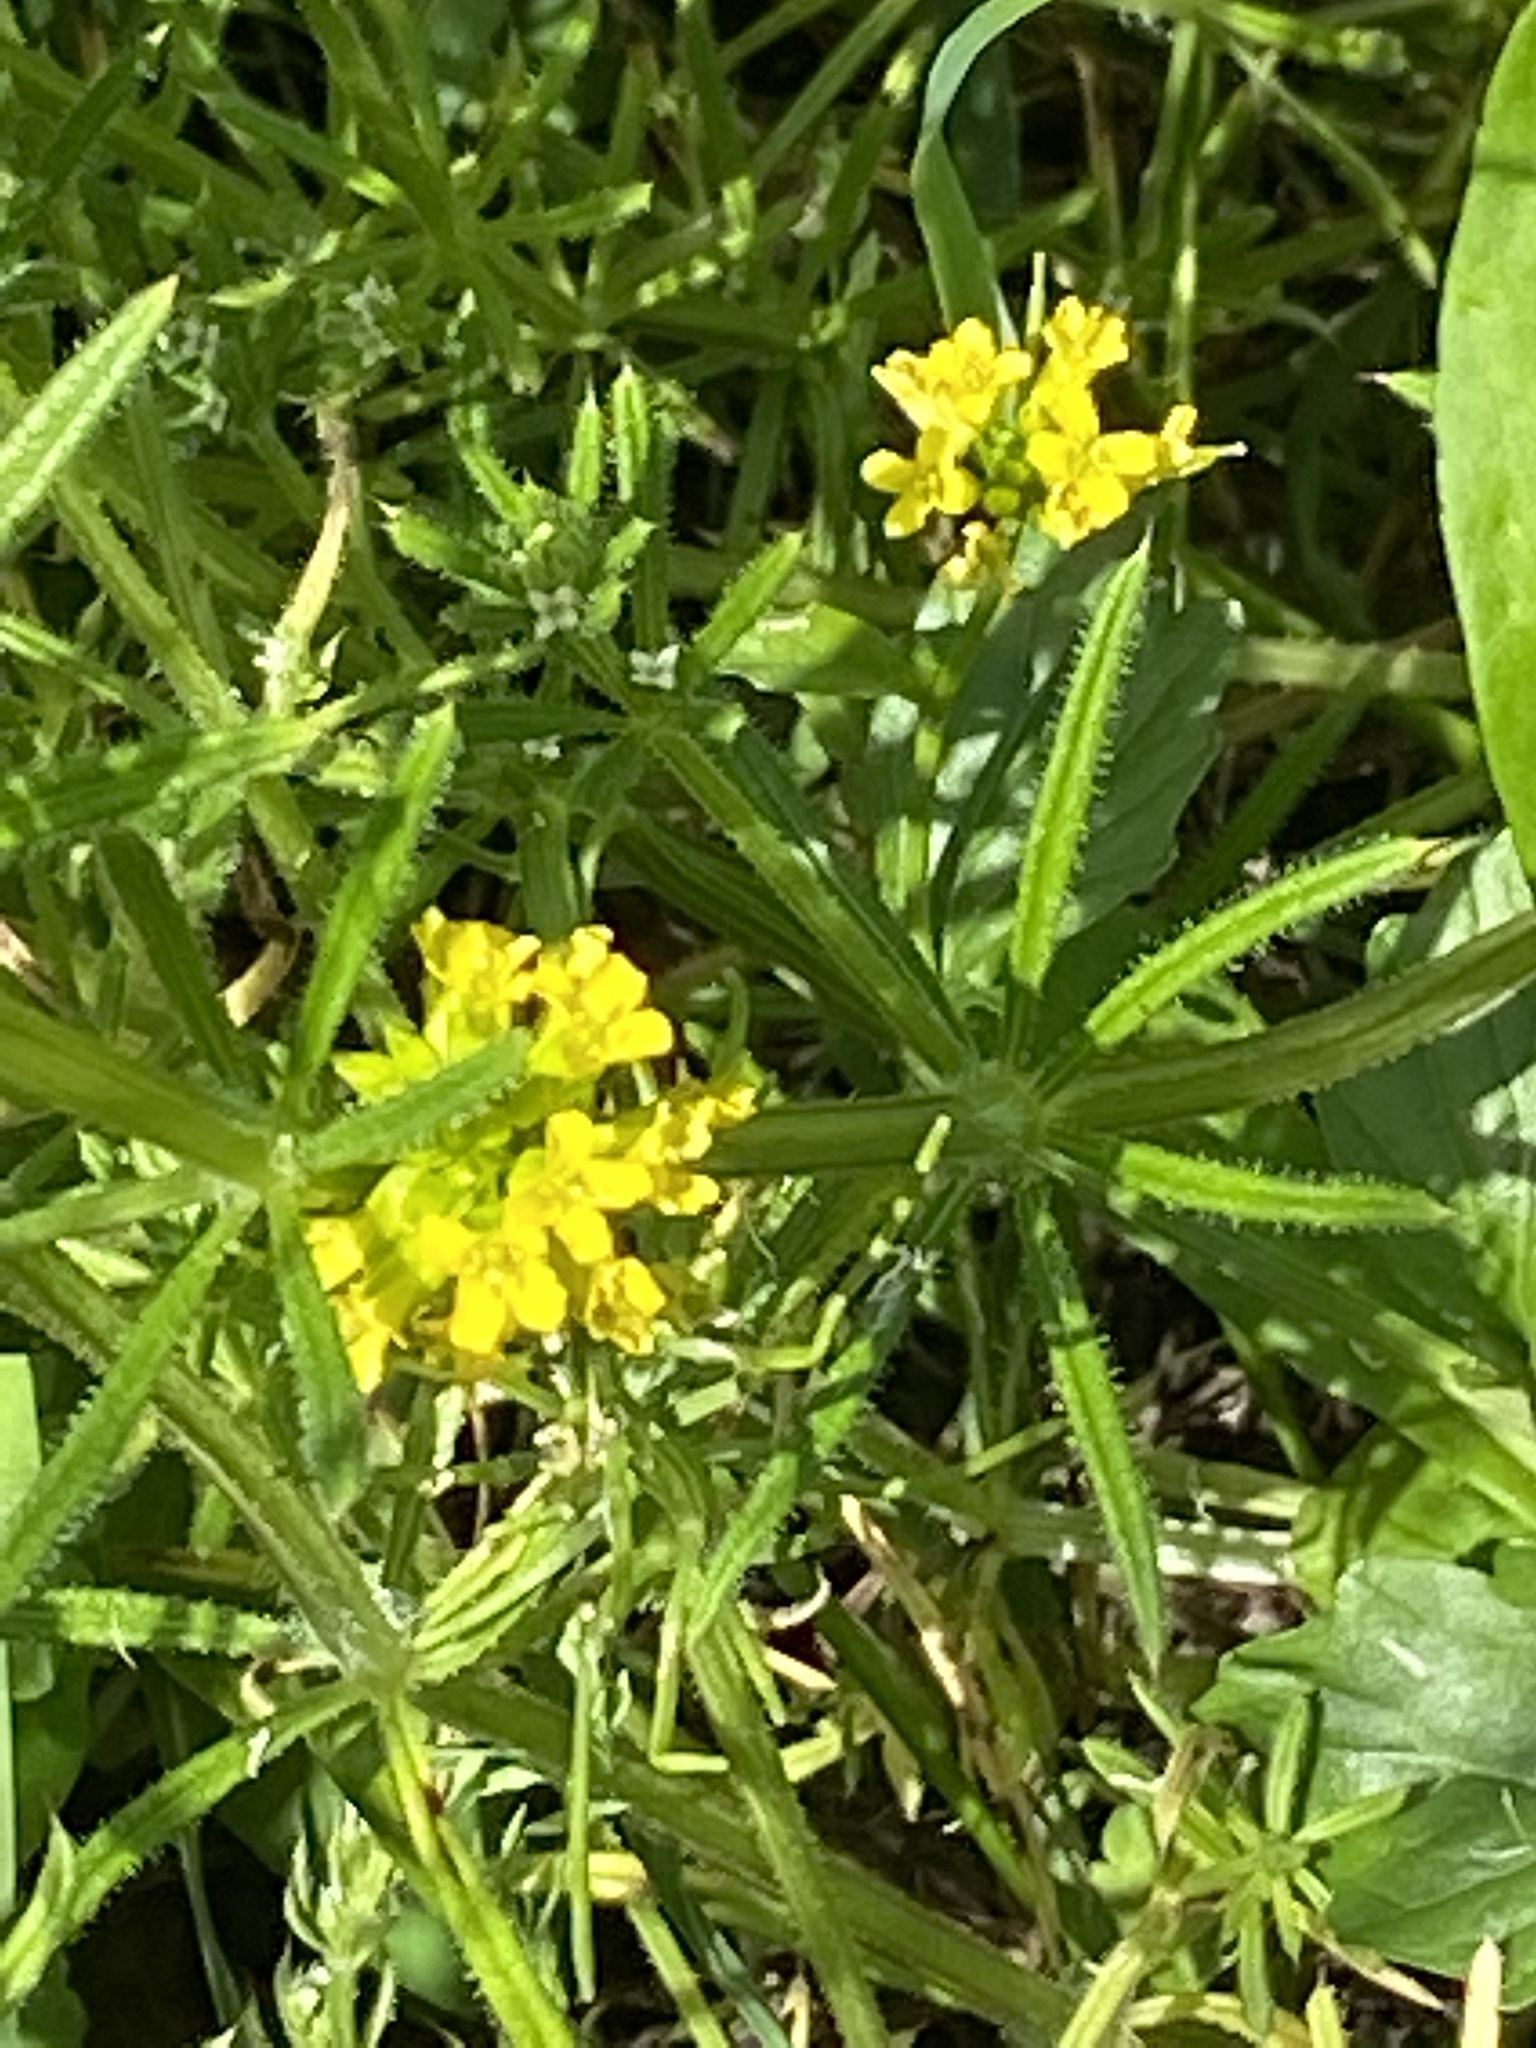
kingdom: Plantae
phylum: Tracheophyta
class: Magnoliopsida
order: Brassicales
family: Brassicaceae
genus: Barbarea
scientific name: Barbarea vulgaris
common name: Cressy-greens
